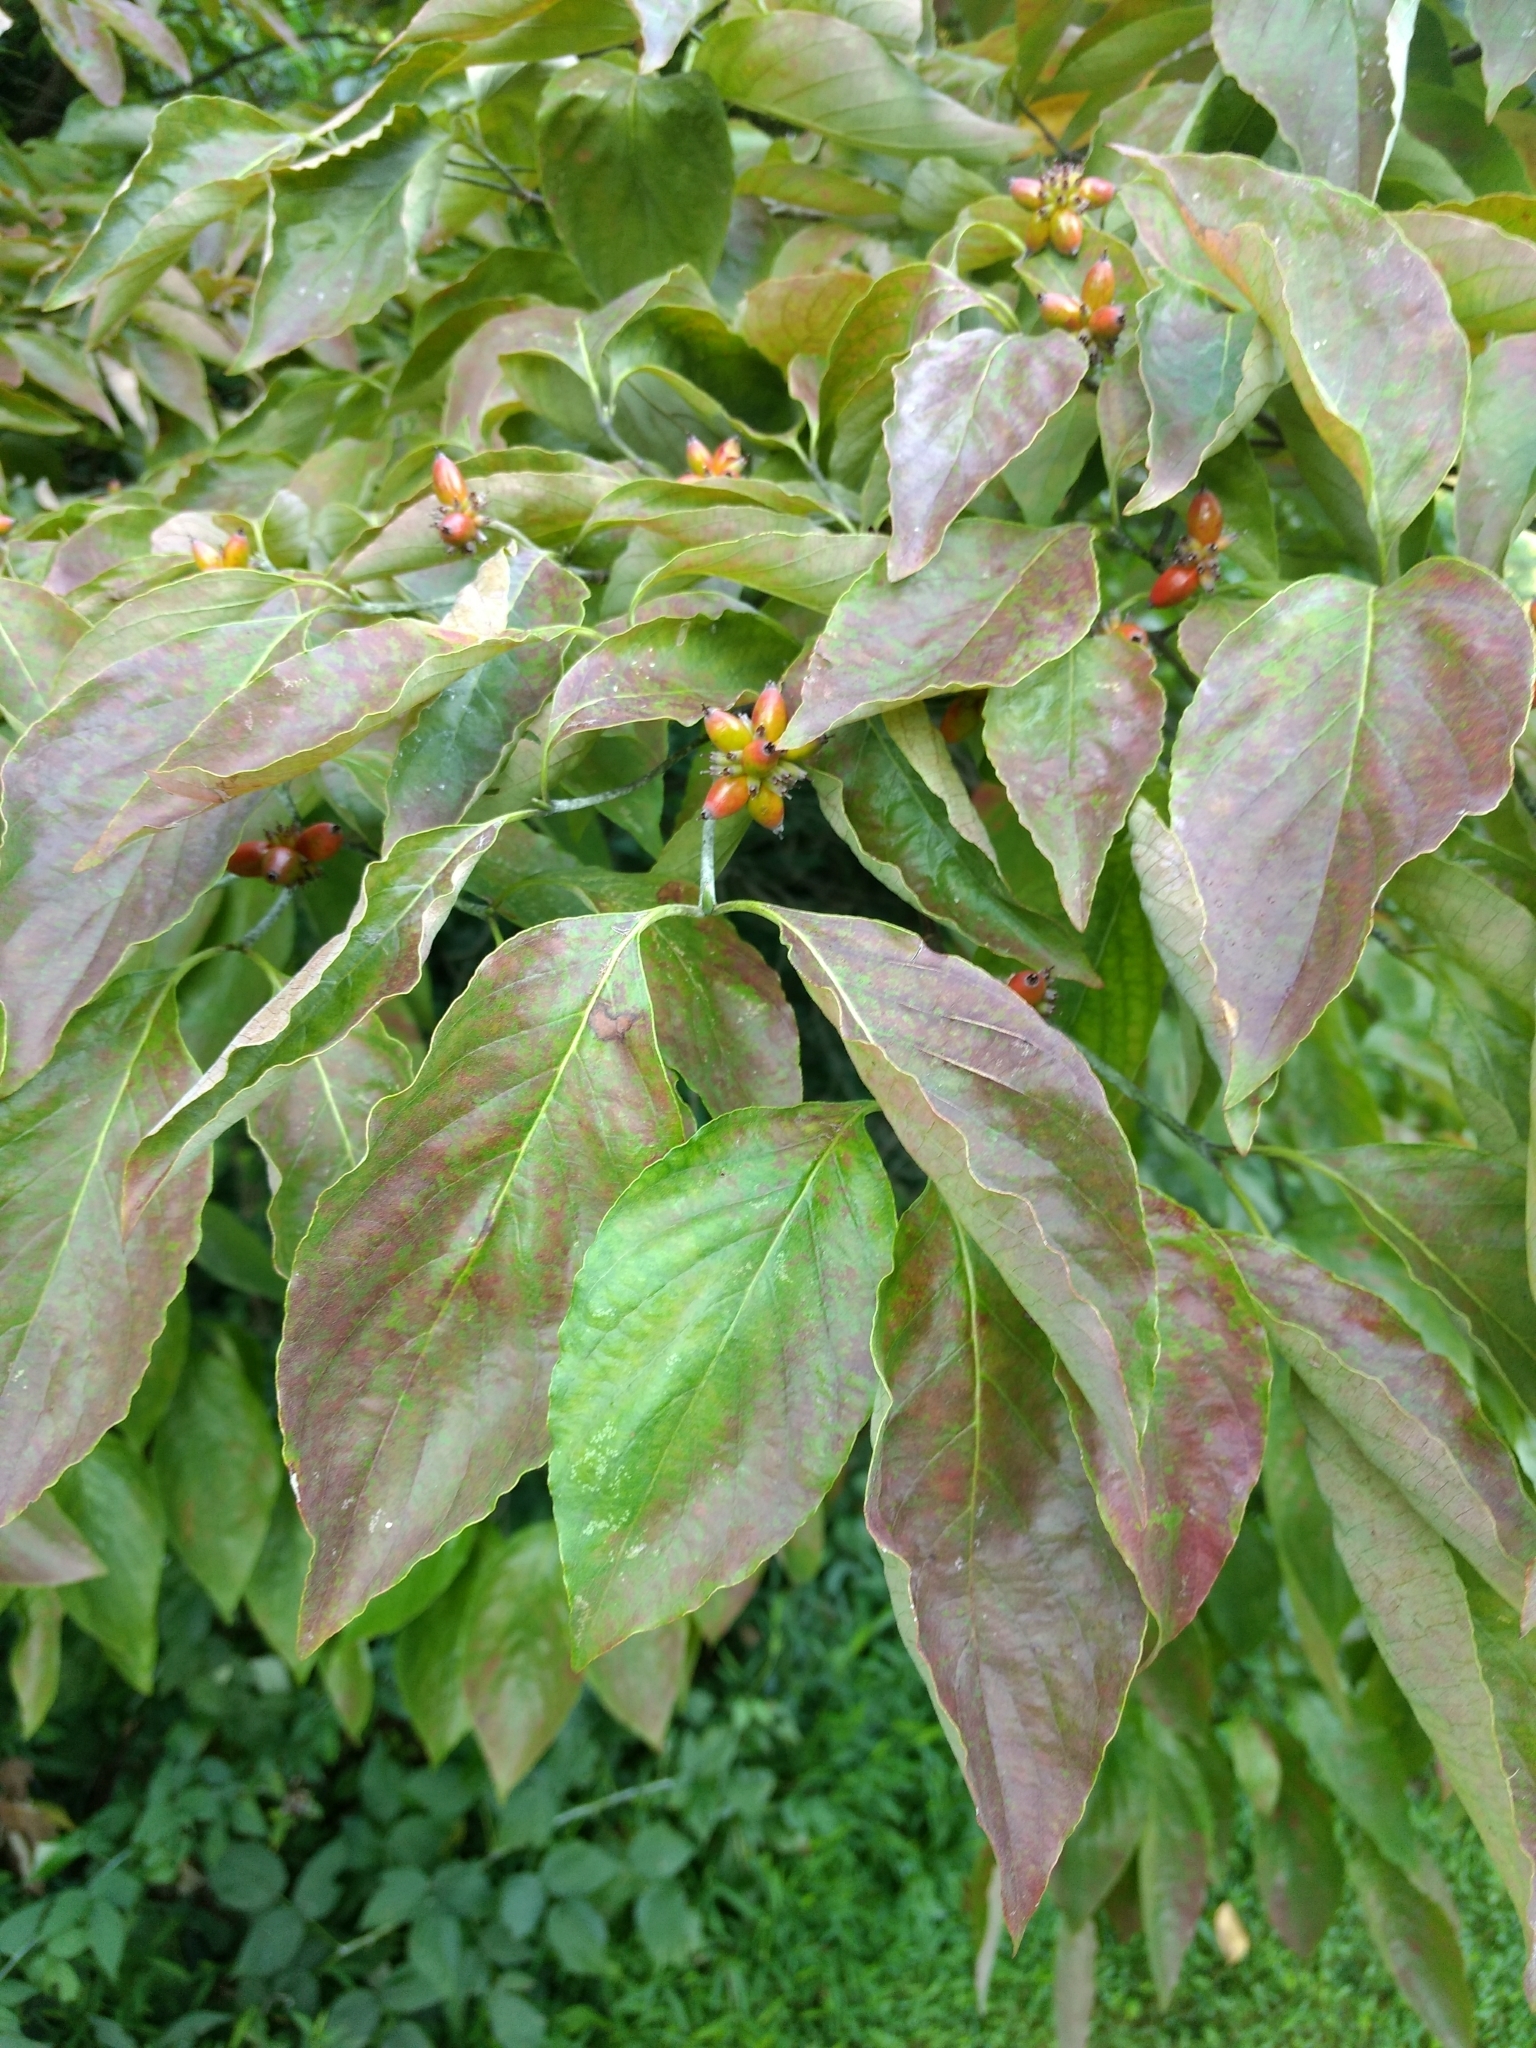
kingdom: Plantae
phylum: Tracheophyta
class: Magnoliopsida
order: Cornales
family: Cornaceae
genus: Cornus
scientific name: Cornus florida
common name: Flowering dogwood
